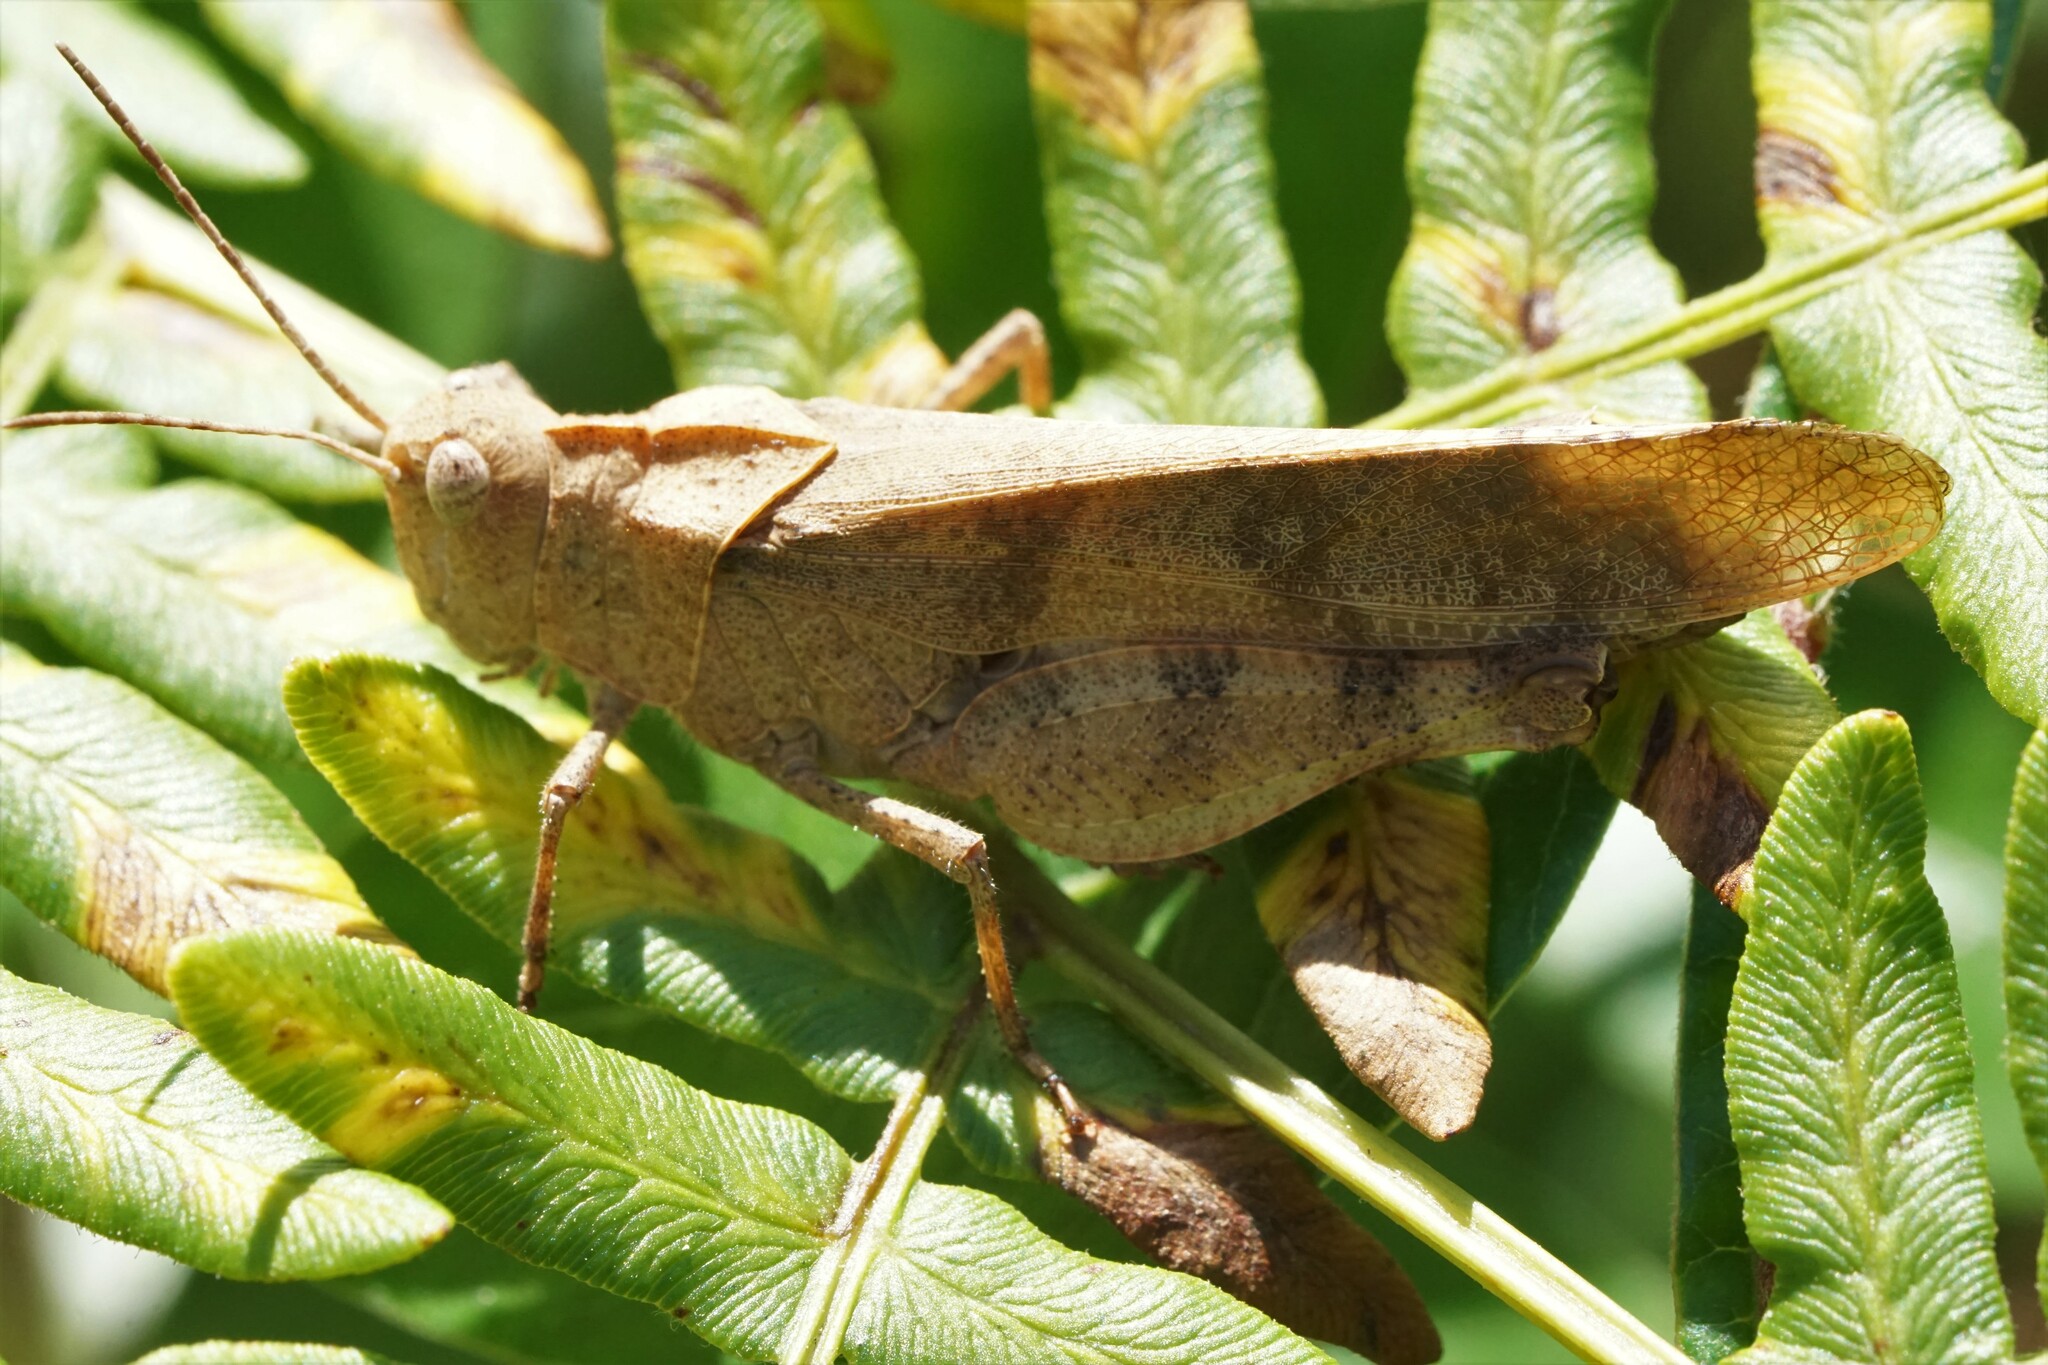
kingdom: Animalia
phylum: Arthropoda
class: Insecta
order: Orthoptera
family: Acrididae
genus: Spharagemon
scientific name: Spharagemon bolli
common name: Boll's grasshopper
